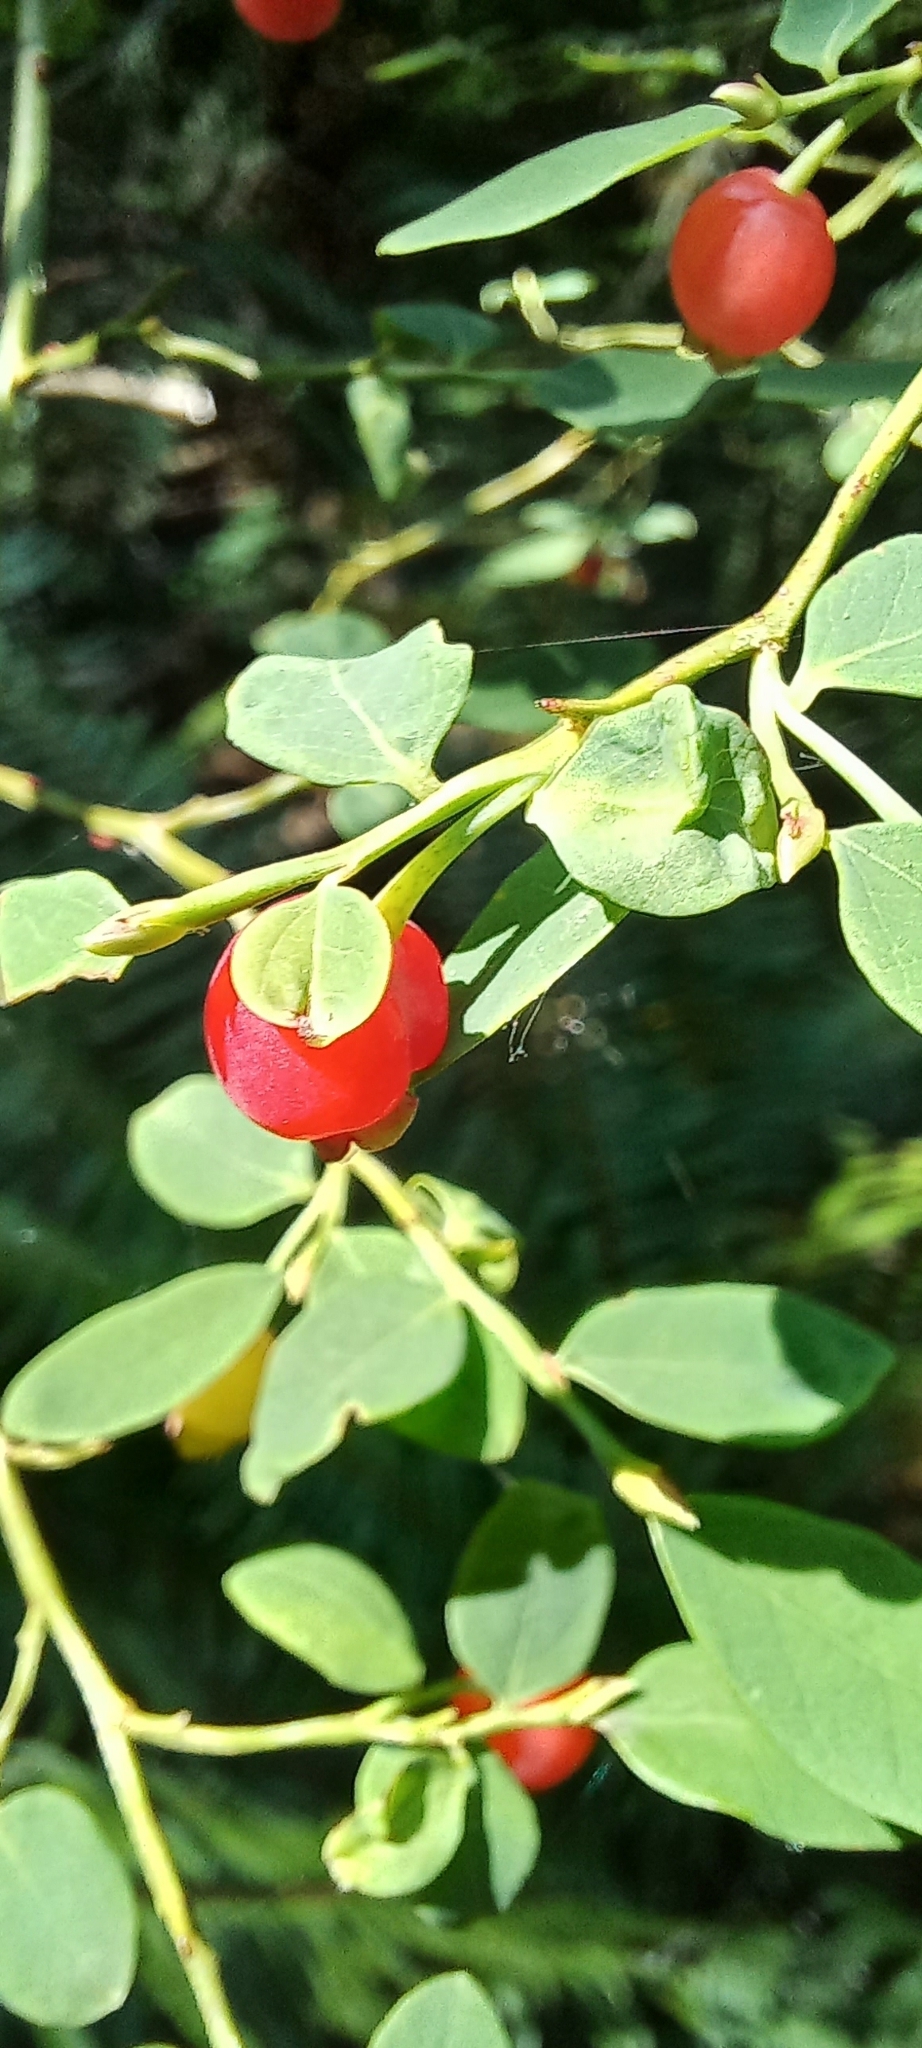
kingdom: Plantae
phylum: Tracheophyta
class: Magnoliopsida
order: Ericales
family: Ericaceae
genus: Vaccinium
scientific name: Vaccinium parvifolium
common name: Red-huckleberry
